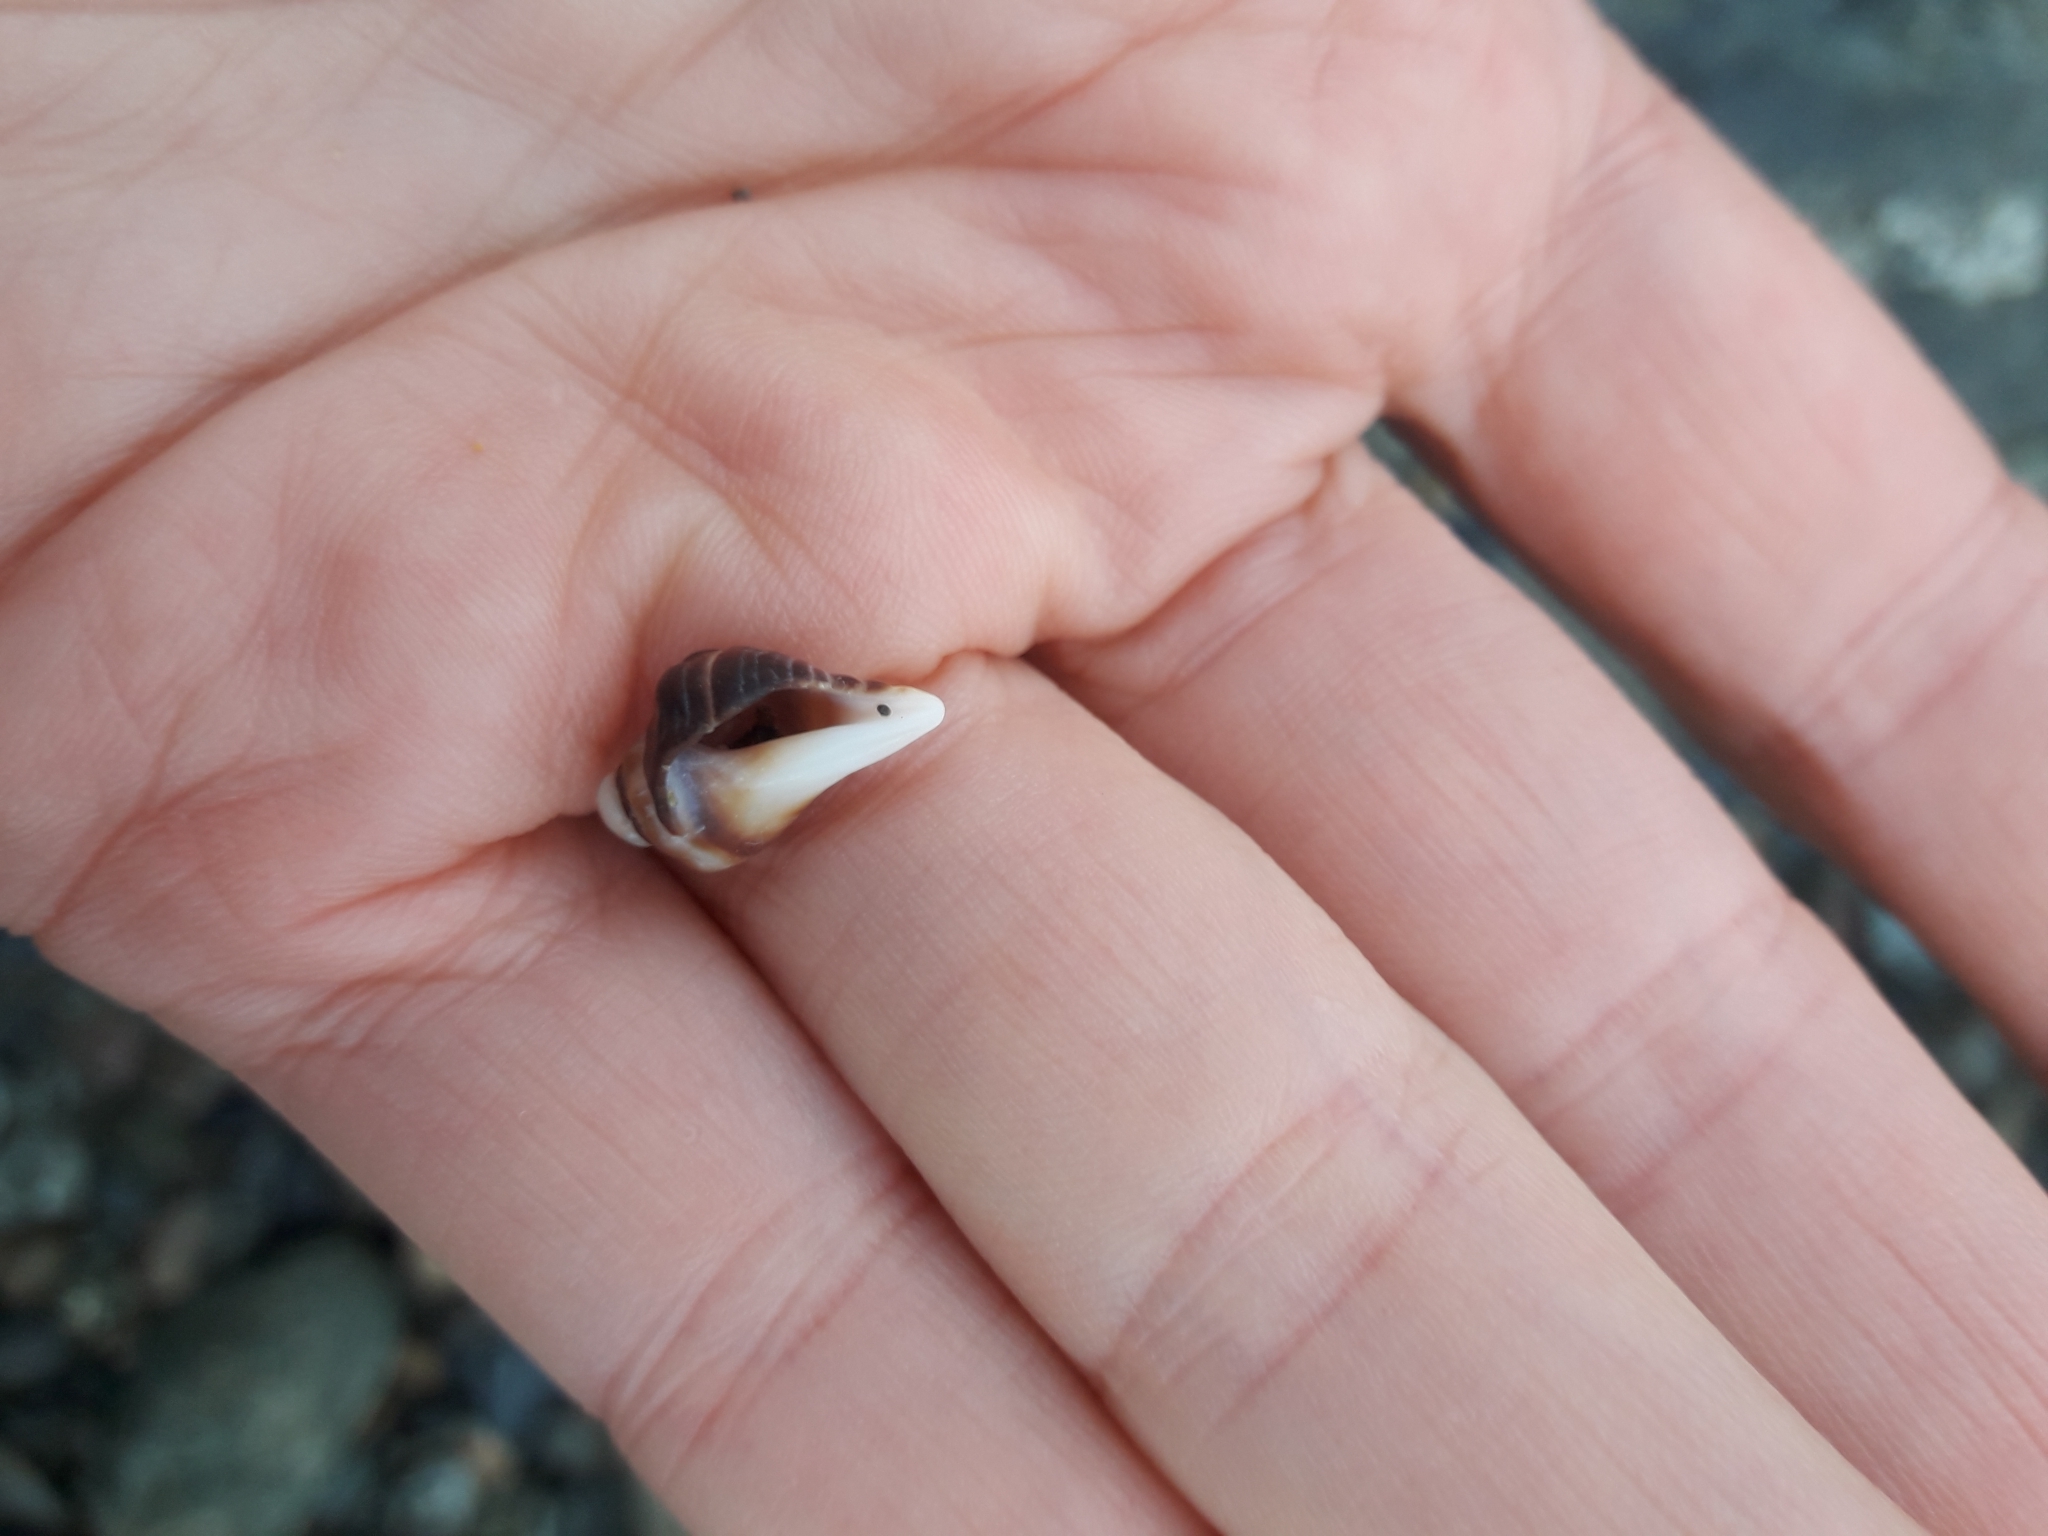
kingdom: Animalia
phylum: Mollusca
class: Gastropoda
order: Neogastropoda
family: Muricidae
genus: Haustrum
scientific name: Haustrum haustorium
